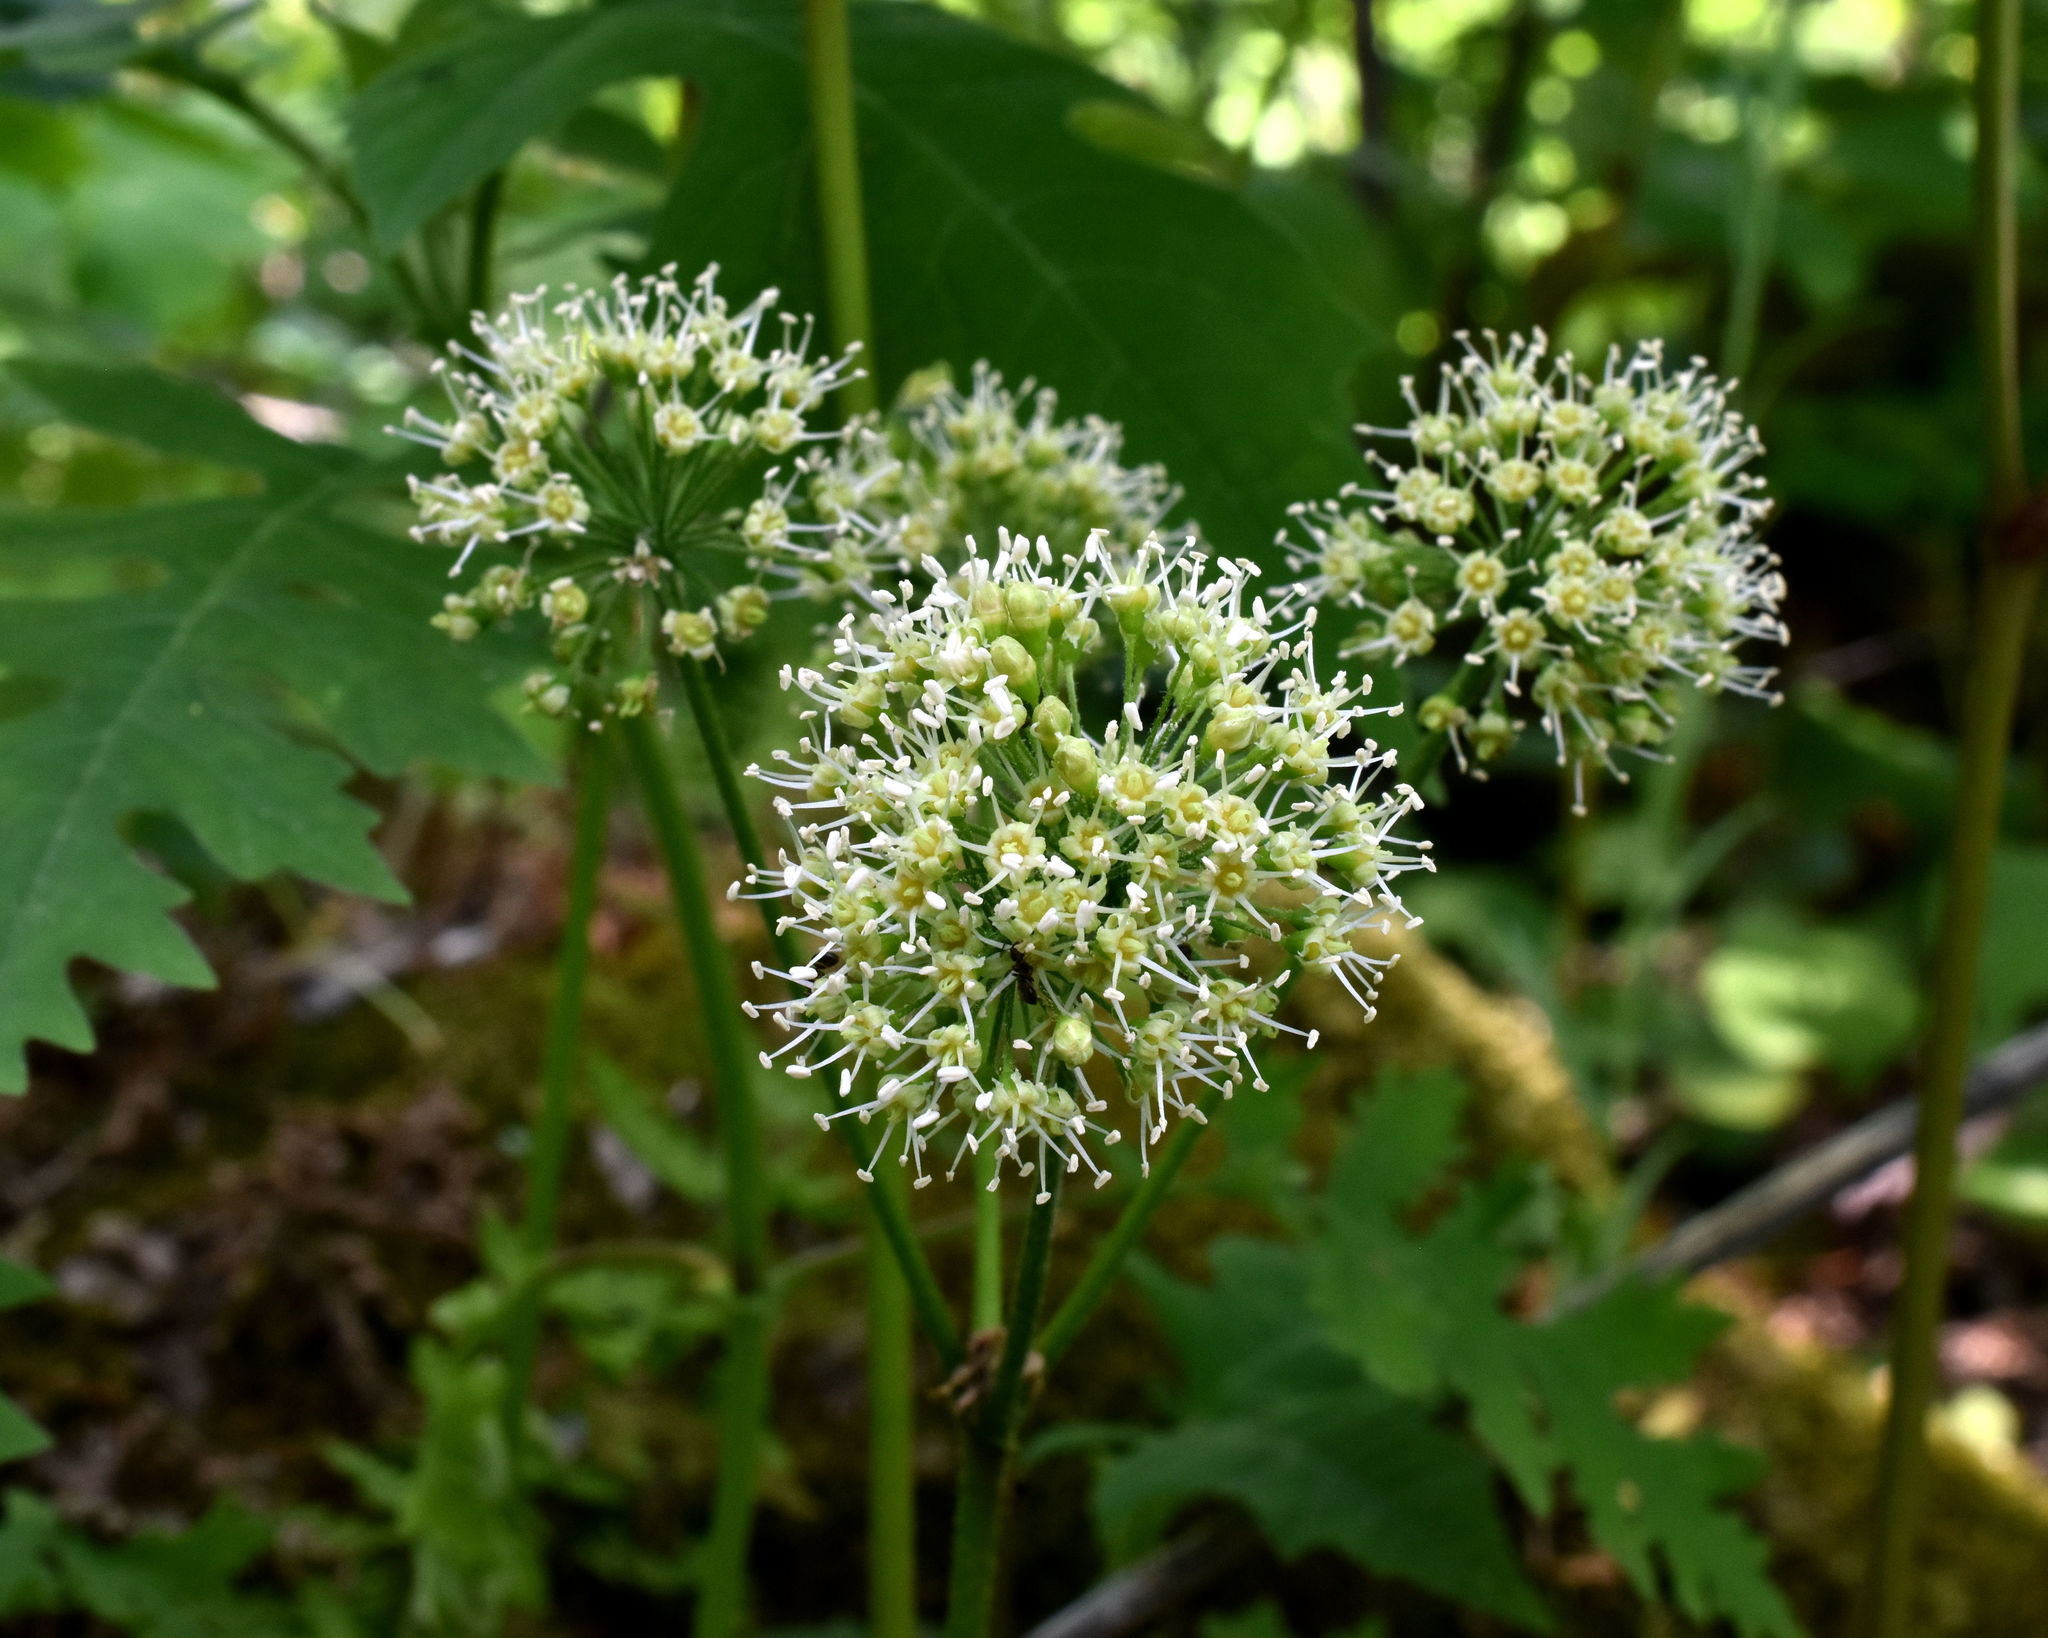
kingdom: Plantae
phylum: Tracheophyta
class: Magnoliopsida
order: Apiales
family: Araliaceae
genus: Aralia
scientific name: Aralia nudicaulis
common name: Wild sarsaparilla
